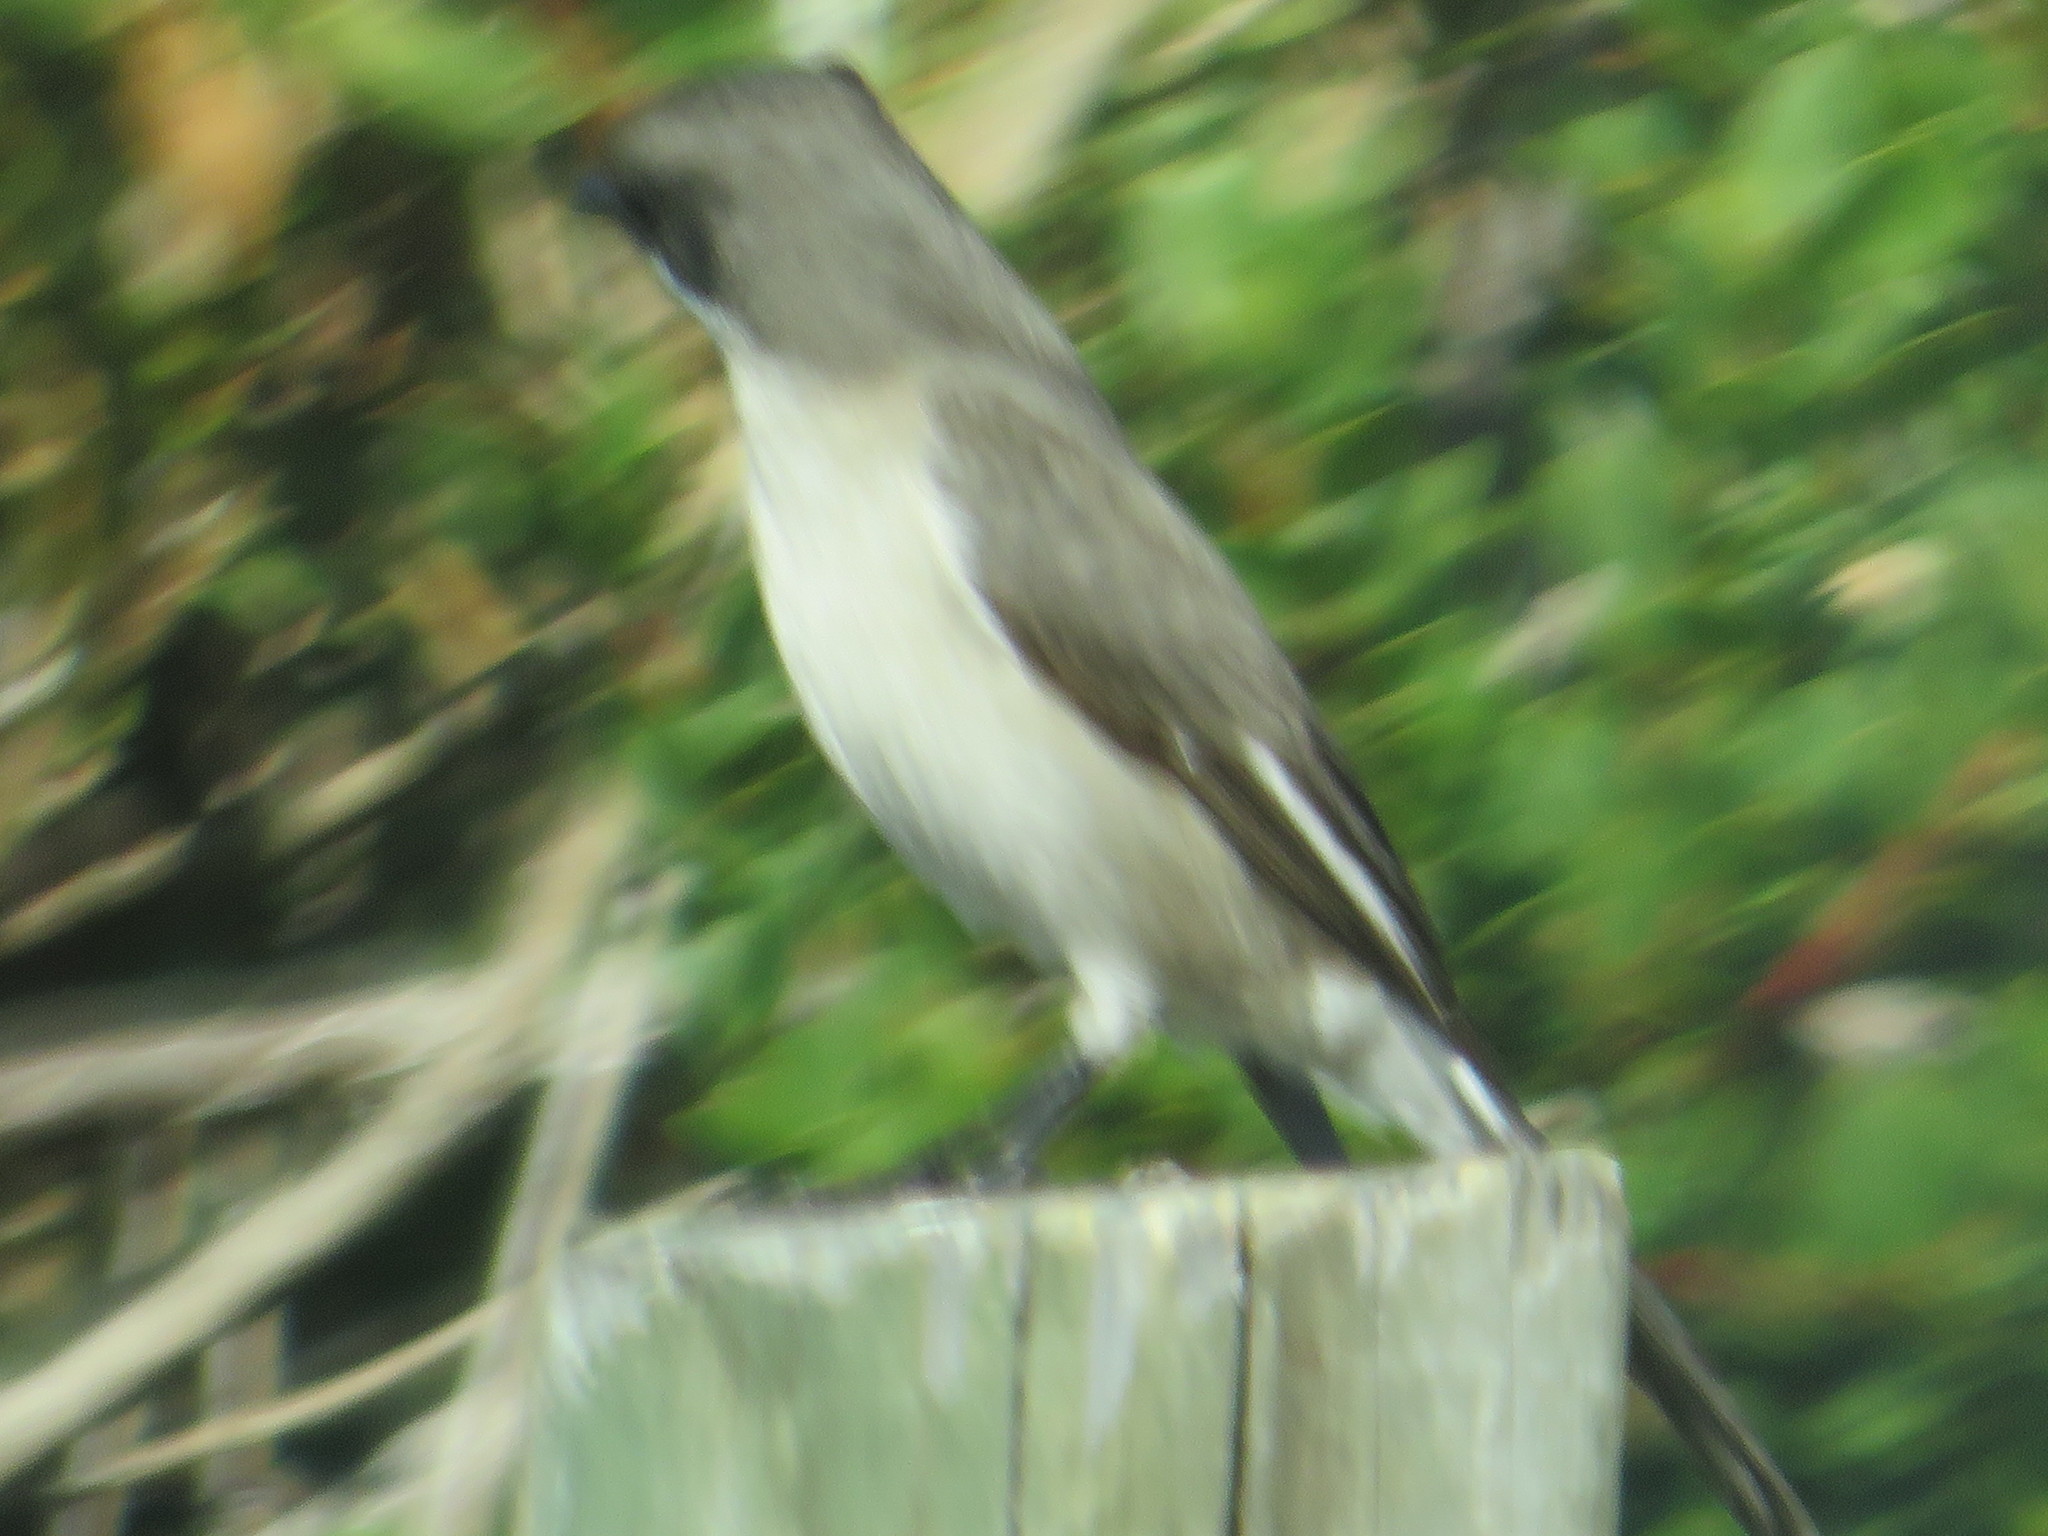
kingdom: Animalia
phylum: Chordata
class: Aves
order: Passeriformes
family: Muscicapidae
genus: Sigelus
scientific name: Sigelus silens
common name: Fiscal flycatcher
